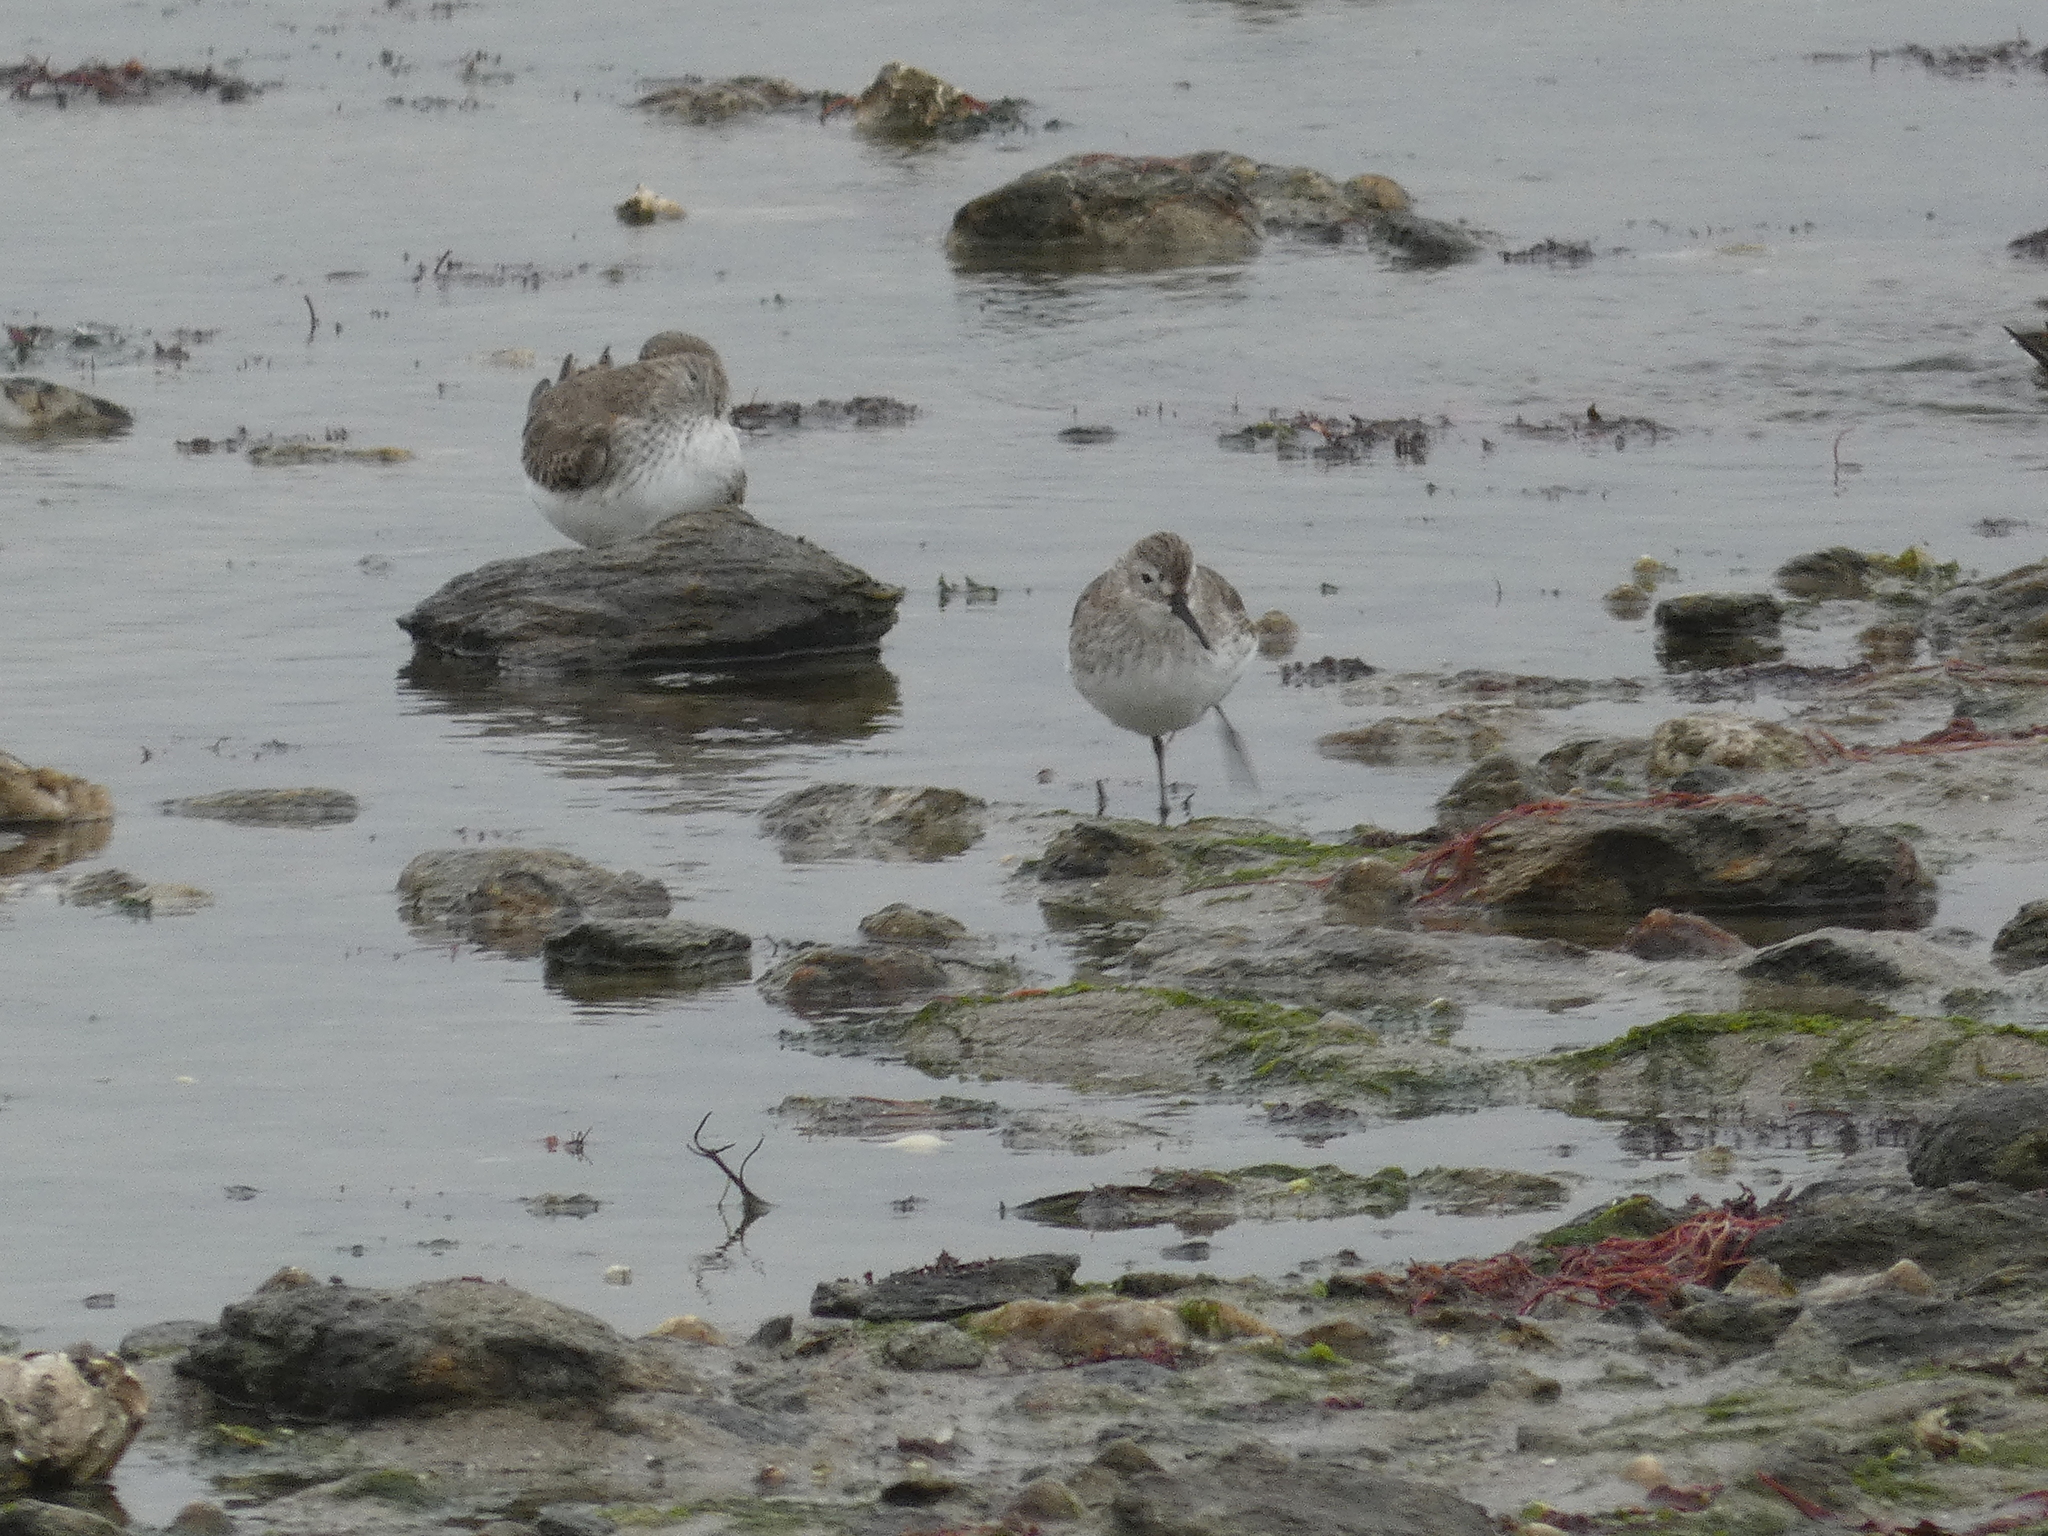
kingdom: Animalia
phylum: Chordata
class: Aves
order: Charadriiformes
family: Scolopacidae
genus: Calidris
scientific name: Calidris alpina
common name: Dunlin
